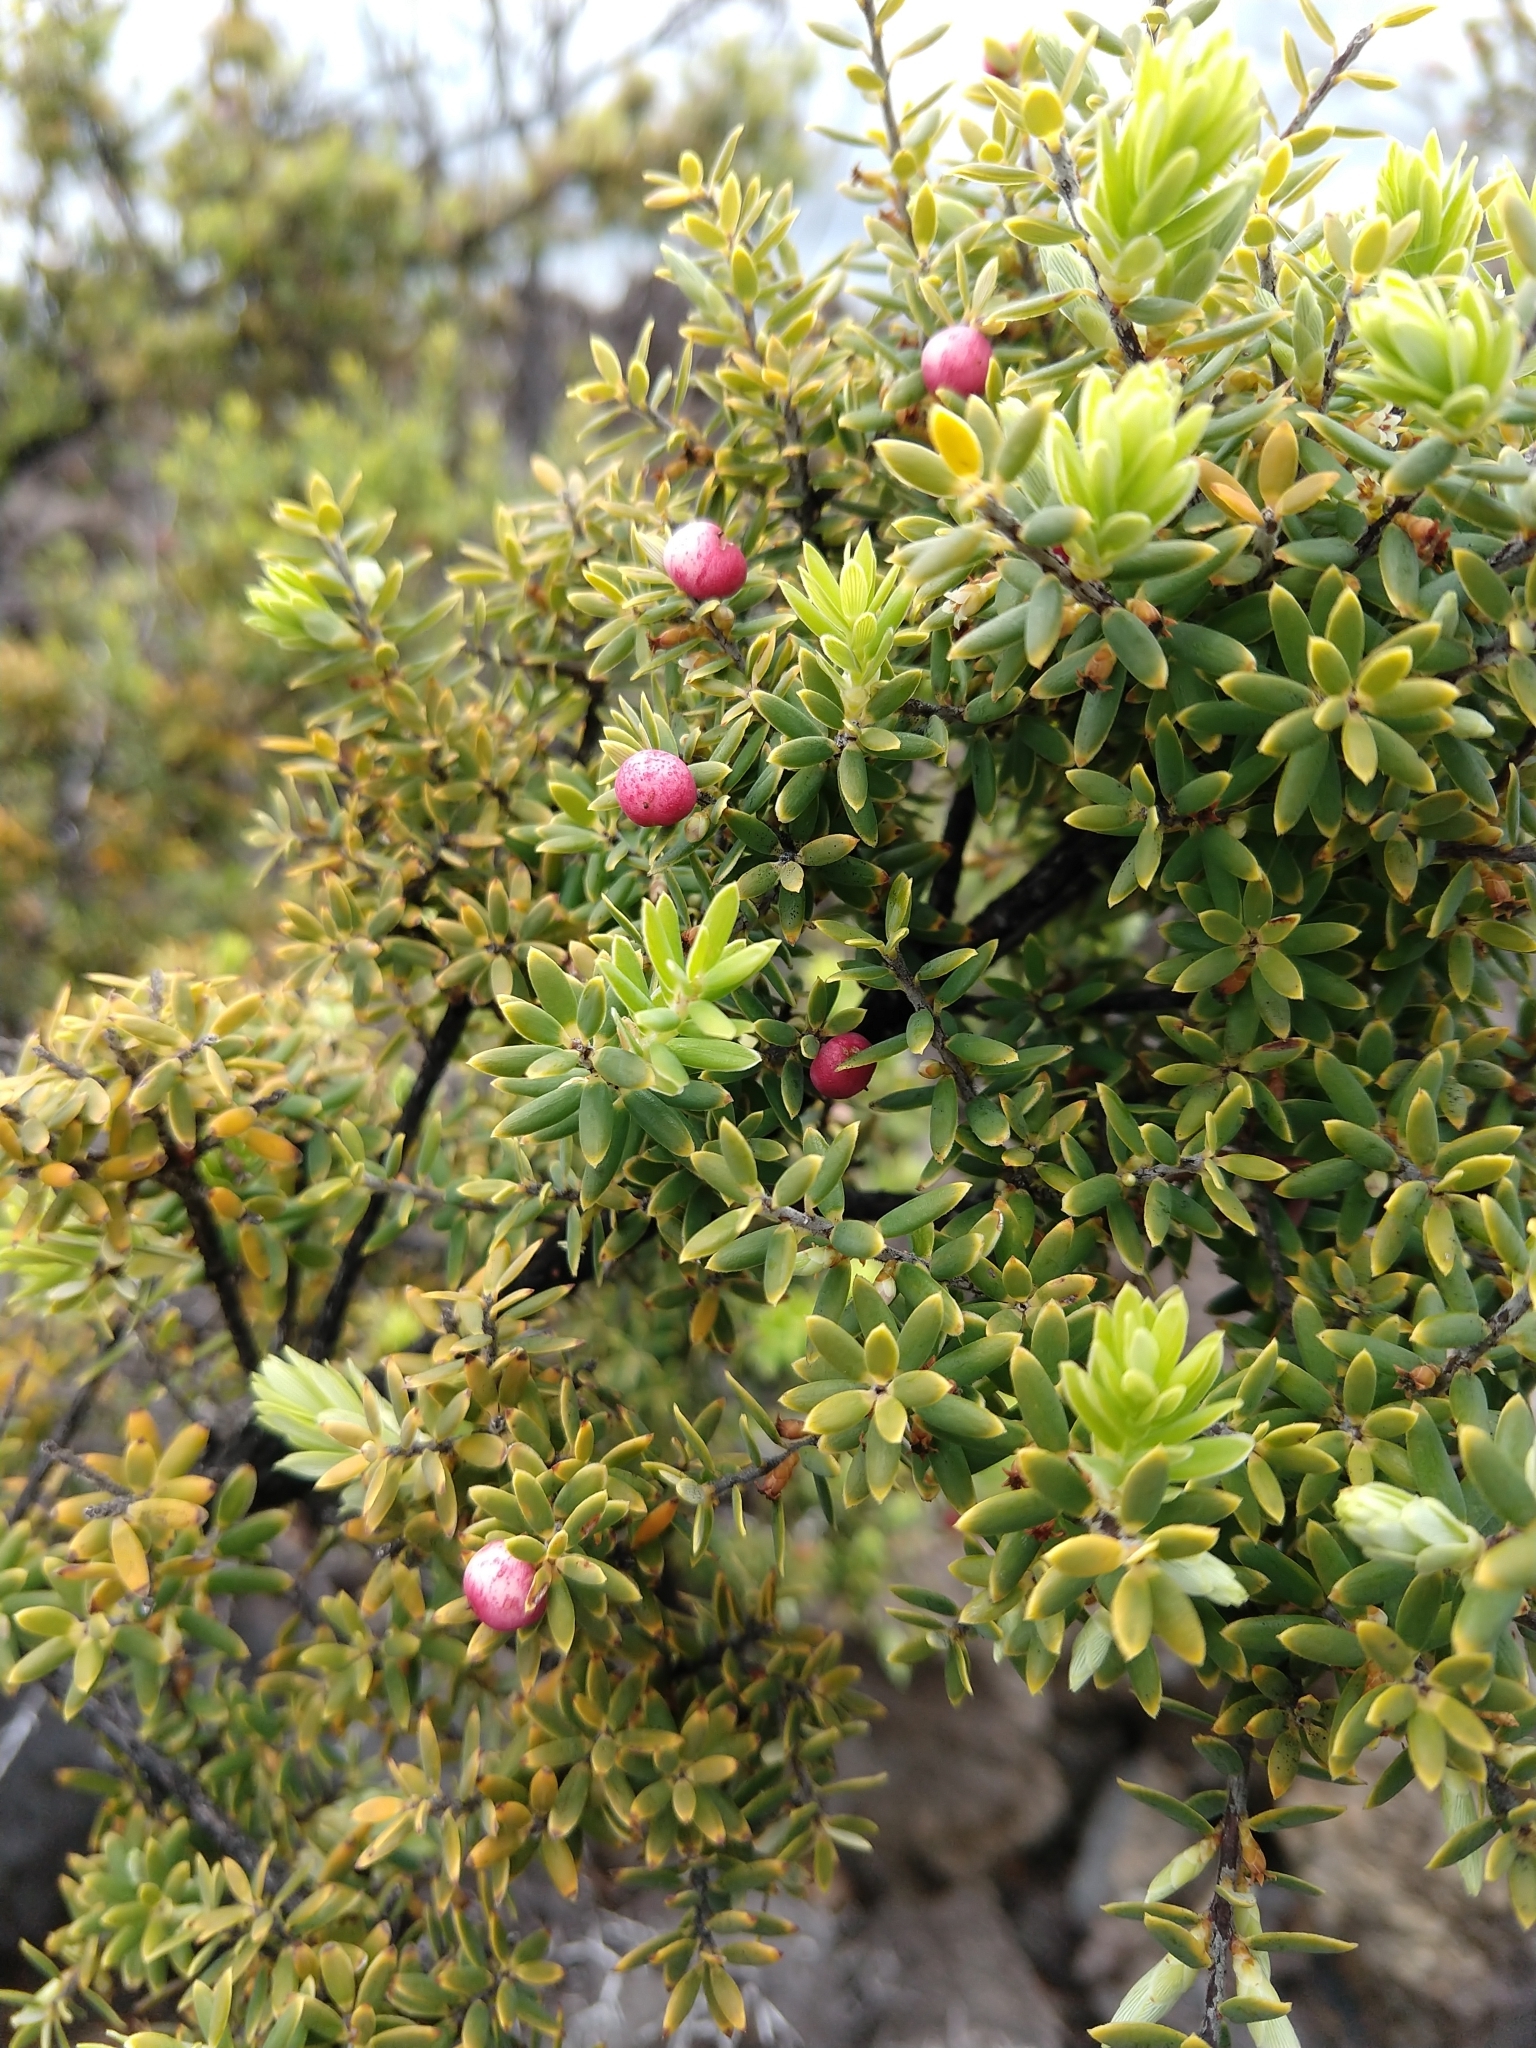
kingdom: Plantae
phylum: Tracheophyta
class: Magnoliopsida
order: Ericales
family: Ericaceae
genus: Leptecophylla
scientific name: Leptecophylla tameiameiae
